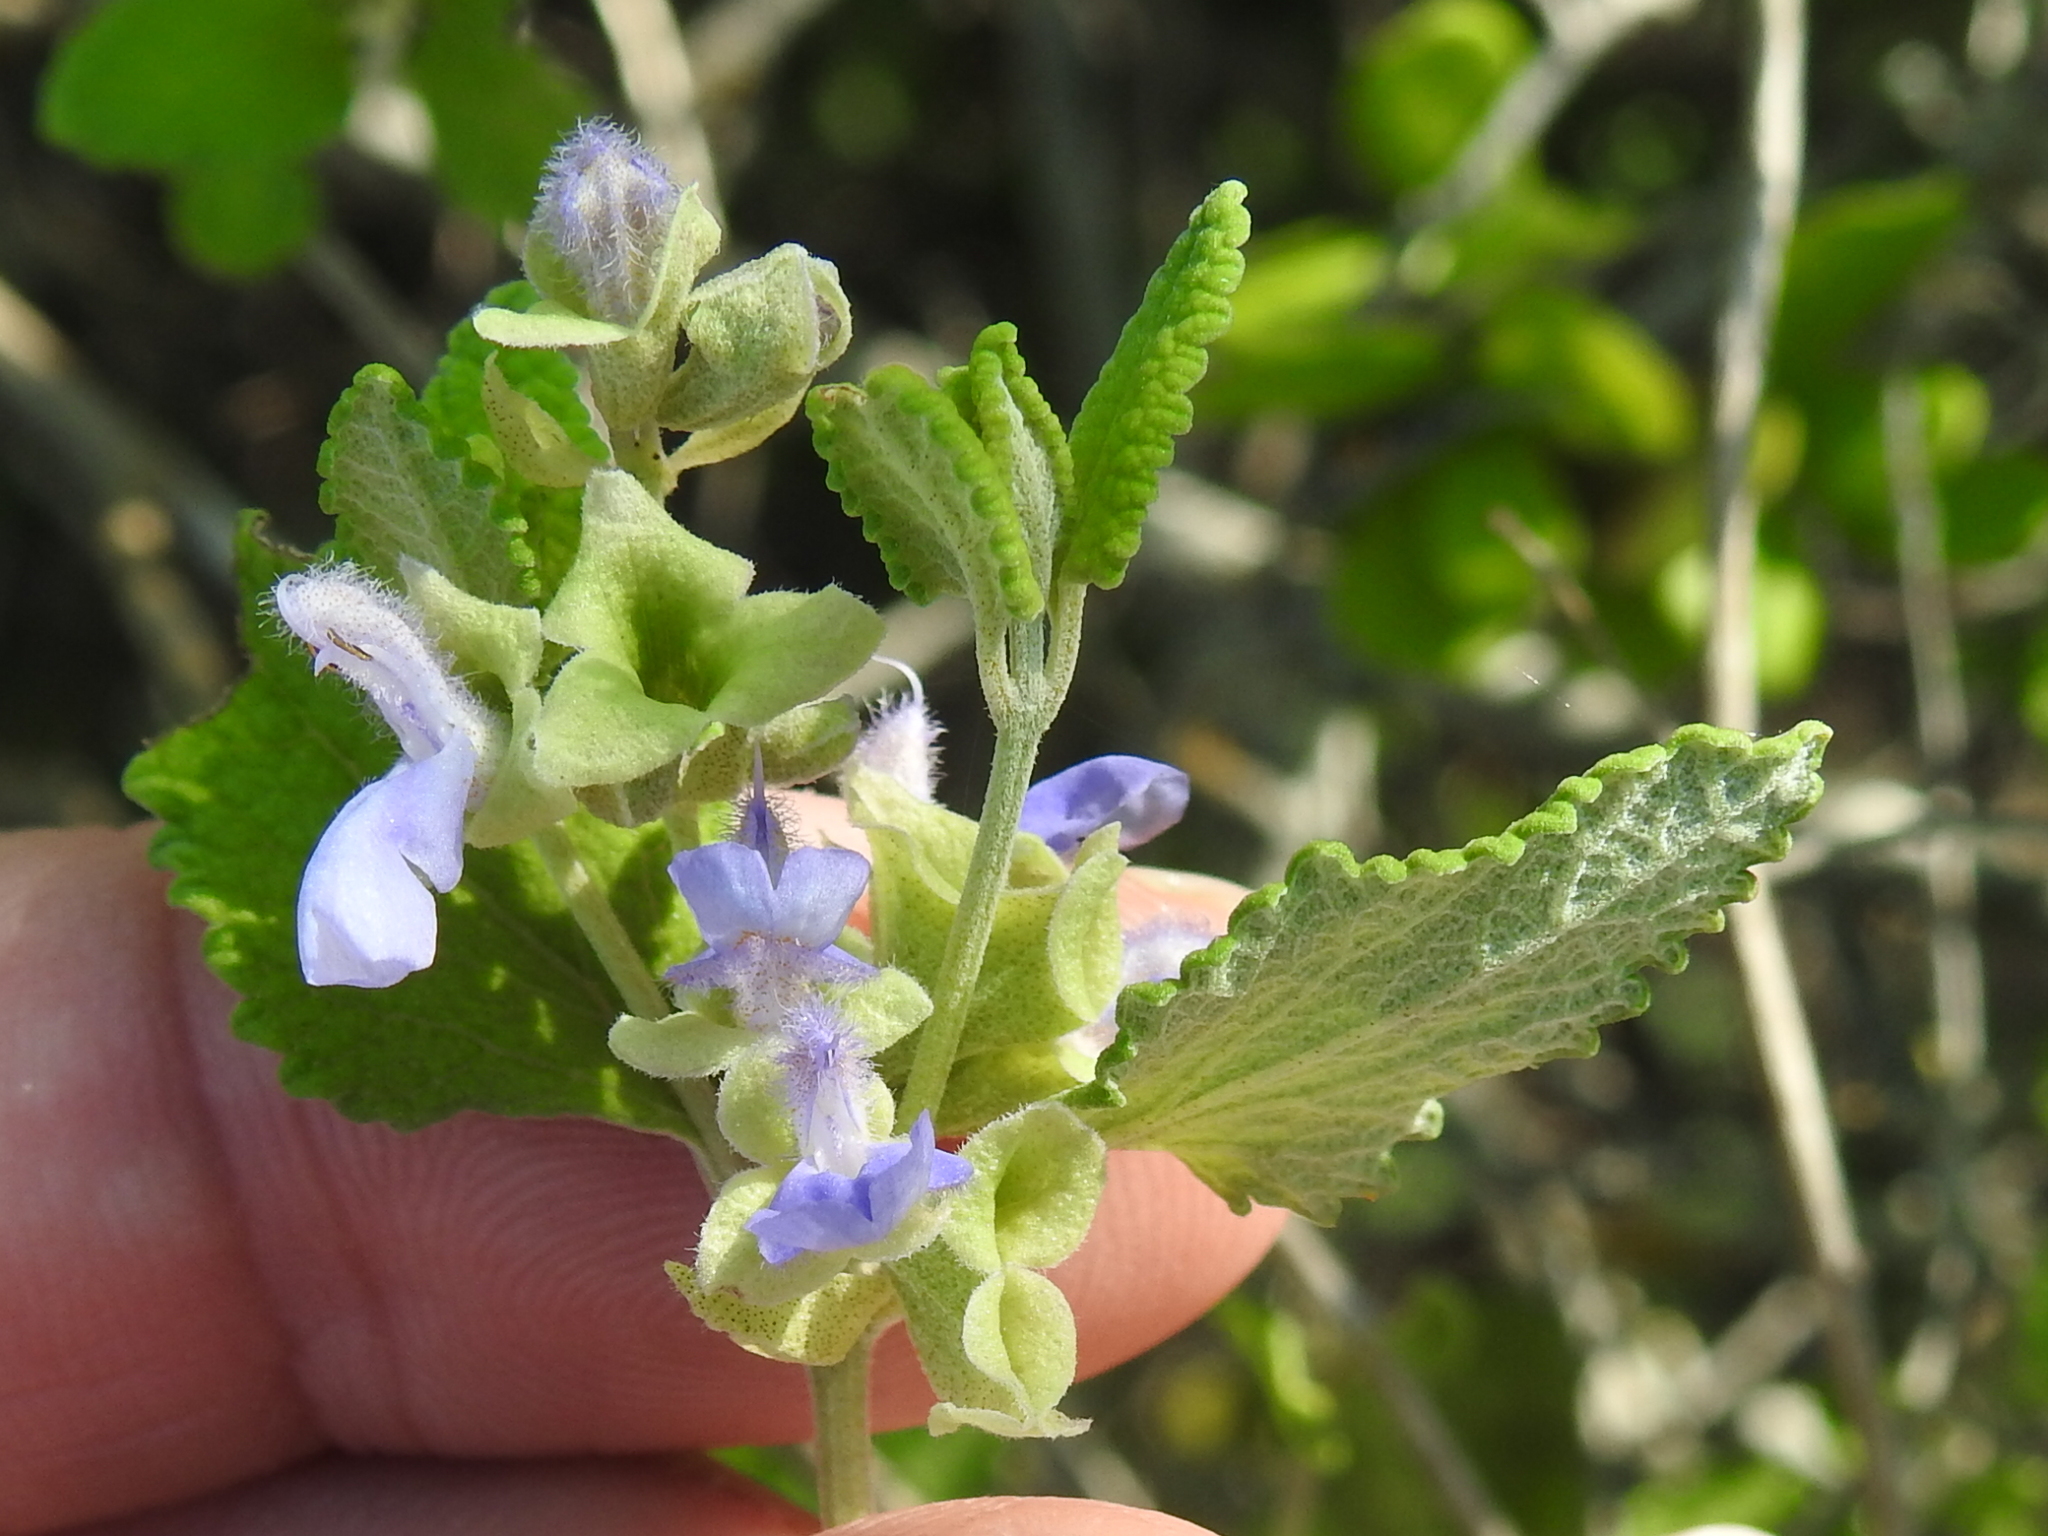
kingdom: Plantae
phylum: Tracheophyta
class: Magnoliopsida
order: Lamiales
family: Lamiaceae
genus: Salvia
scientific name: Salvia ballotiflora
